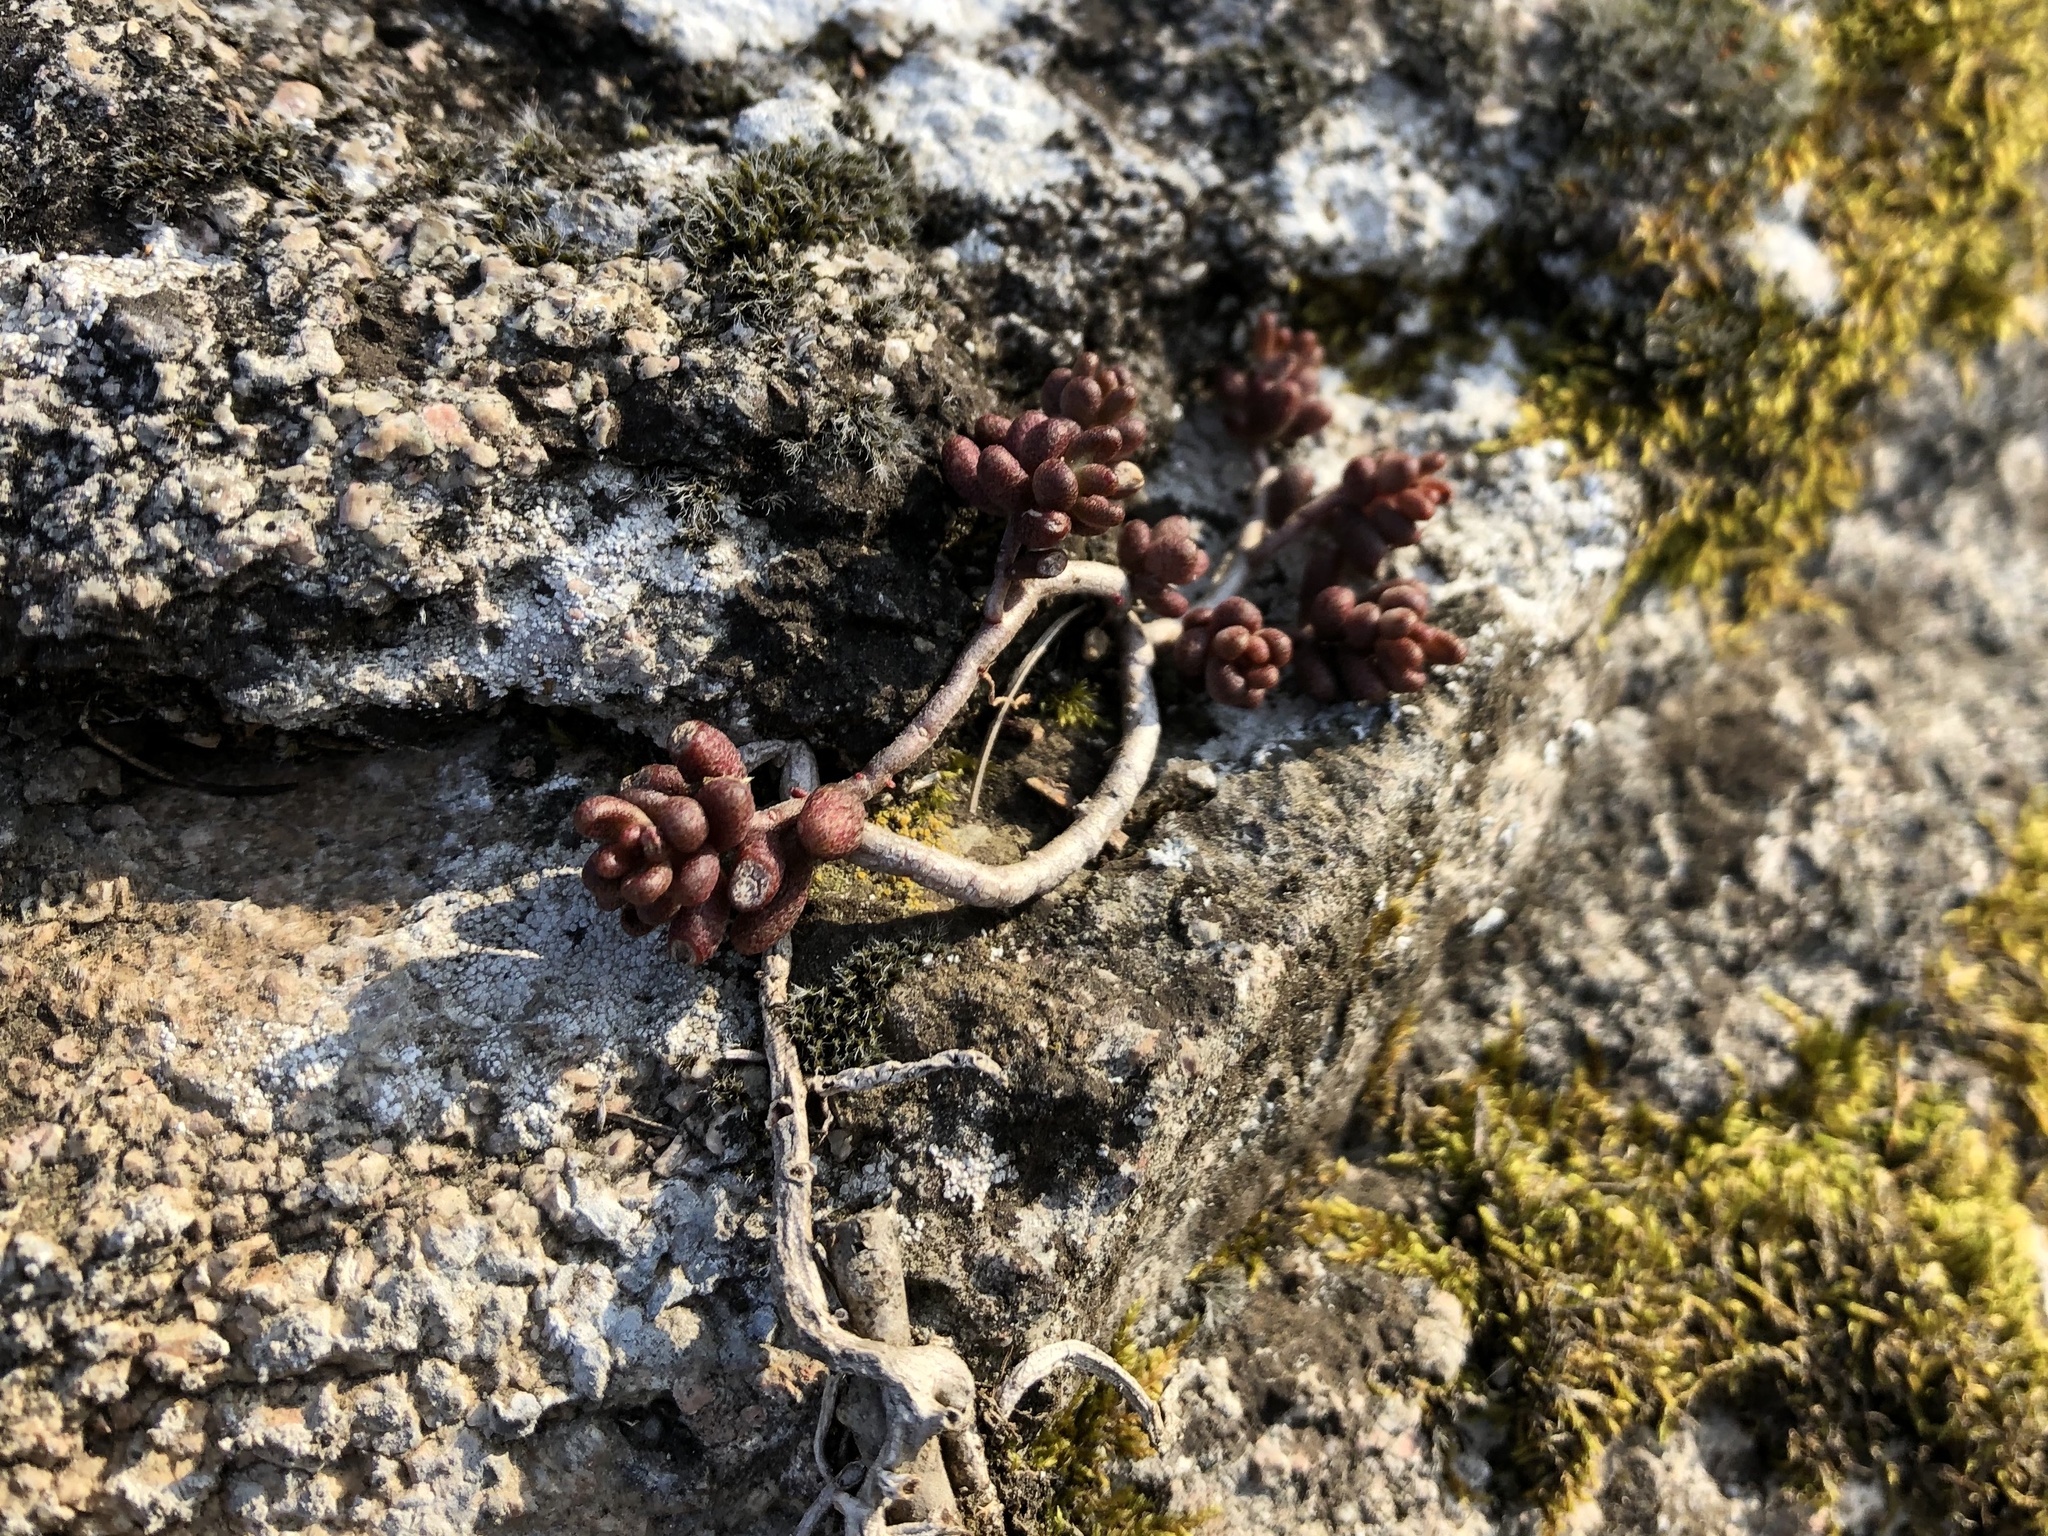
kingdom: Plantae
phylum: Tracheophyta
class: Magnoliopsida
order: Saxifragales
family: Crassulaceae
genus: Sedum
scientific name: Sedum album
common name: White stonecrop
